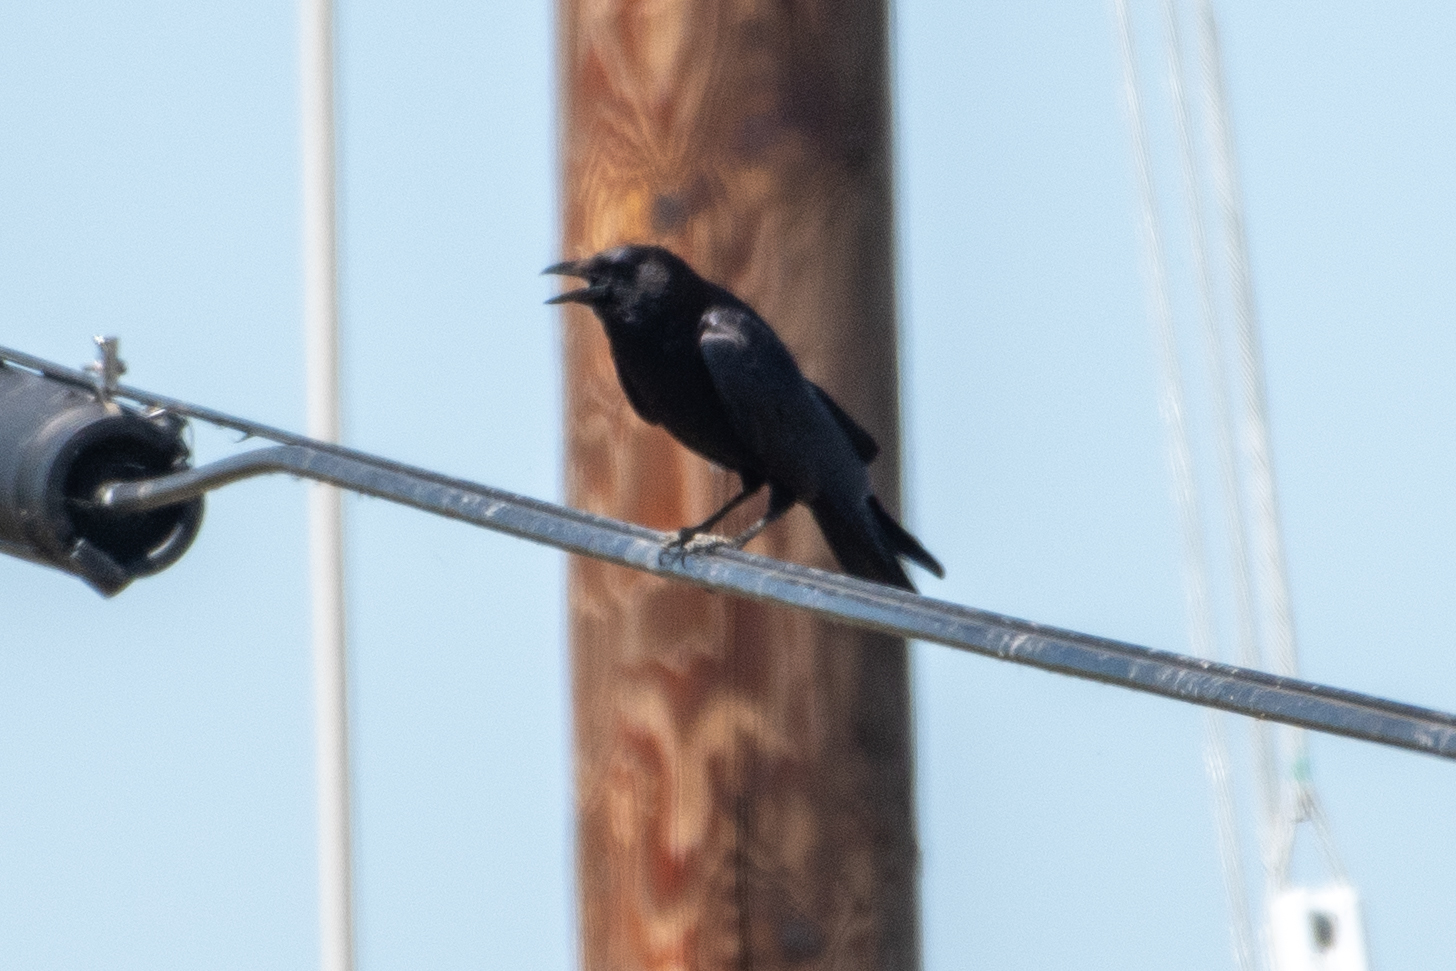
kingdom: Animalia
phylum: Chordata
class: Aves
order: Passeriformes
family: Corvidae
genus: Corvus
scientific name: Corvus brachyrhynchos
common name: American crow
